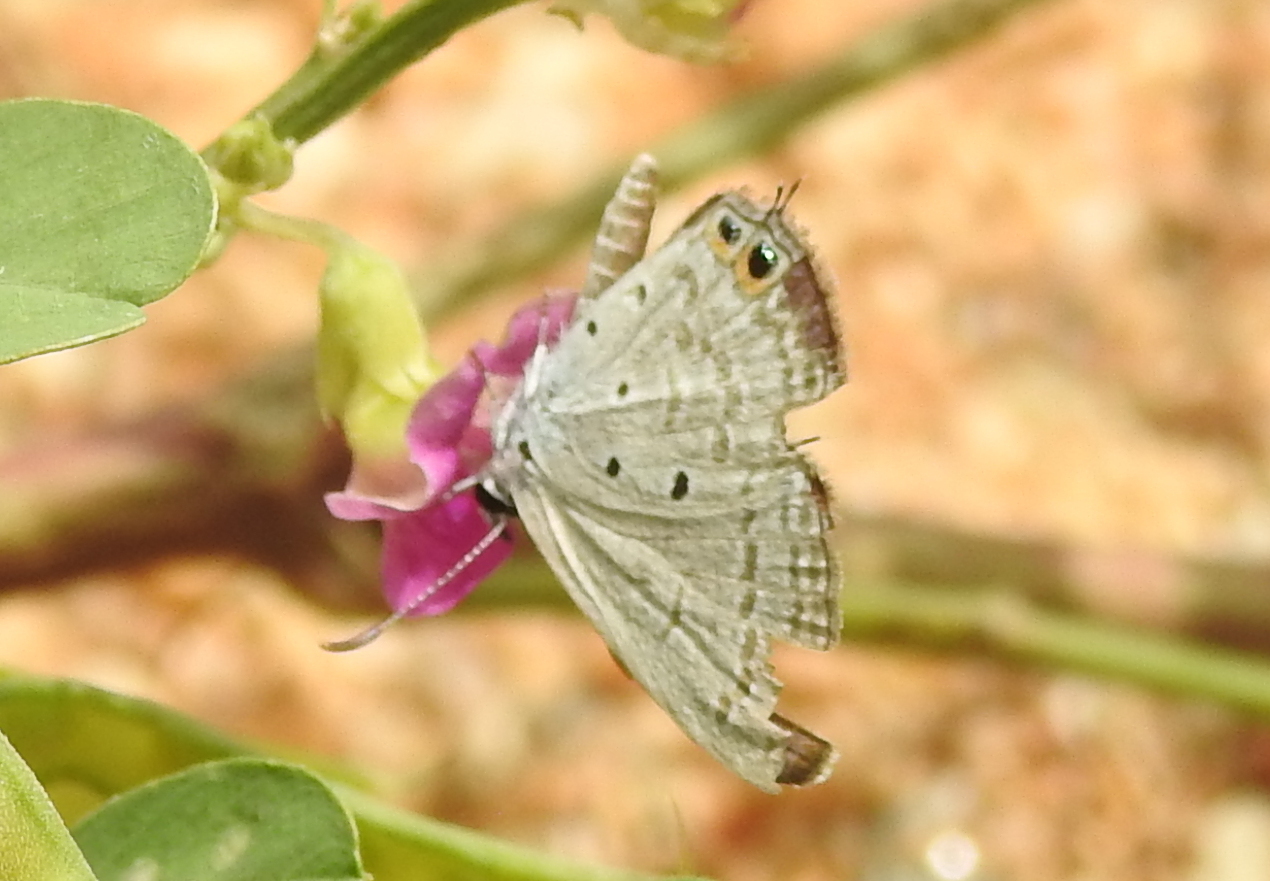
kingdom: Animalia
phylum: Arthropoda
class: Insecta
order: Lepidoptera
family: Lycaenidae
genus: Euchrysops
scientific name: Euchrysops cnejus
